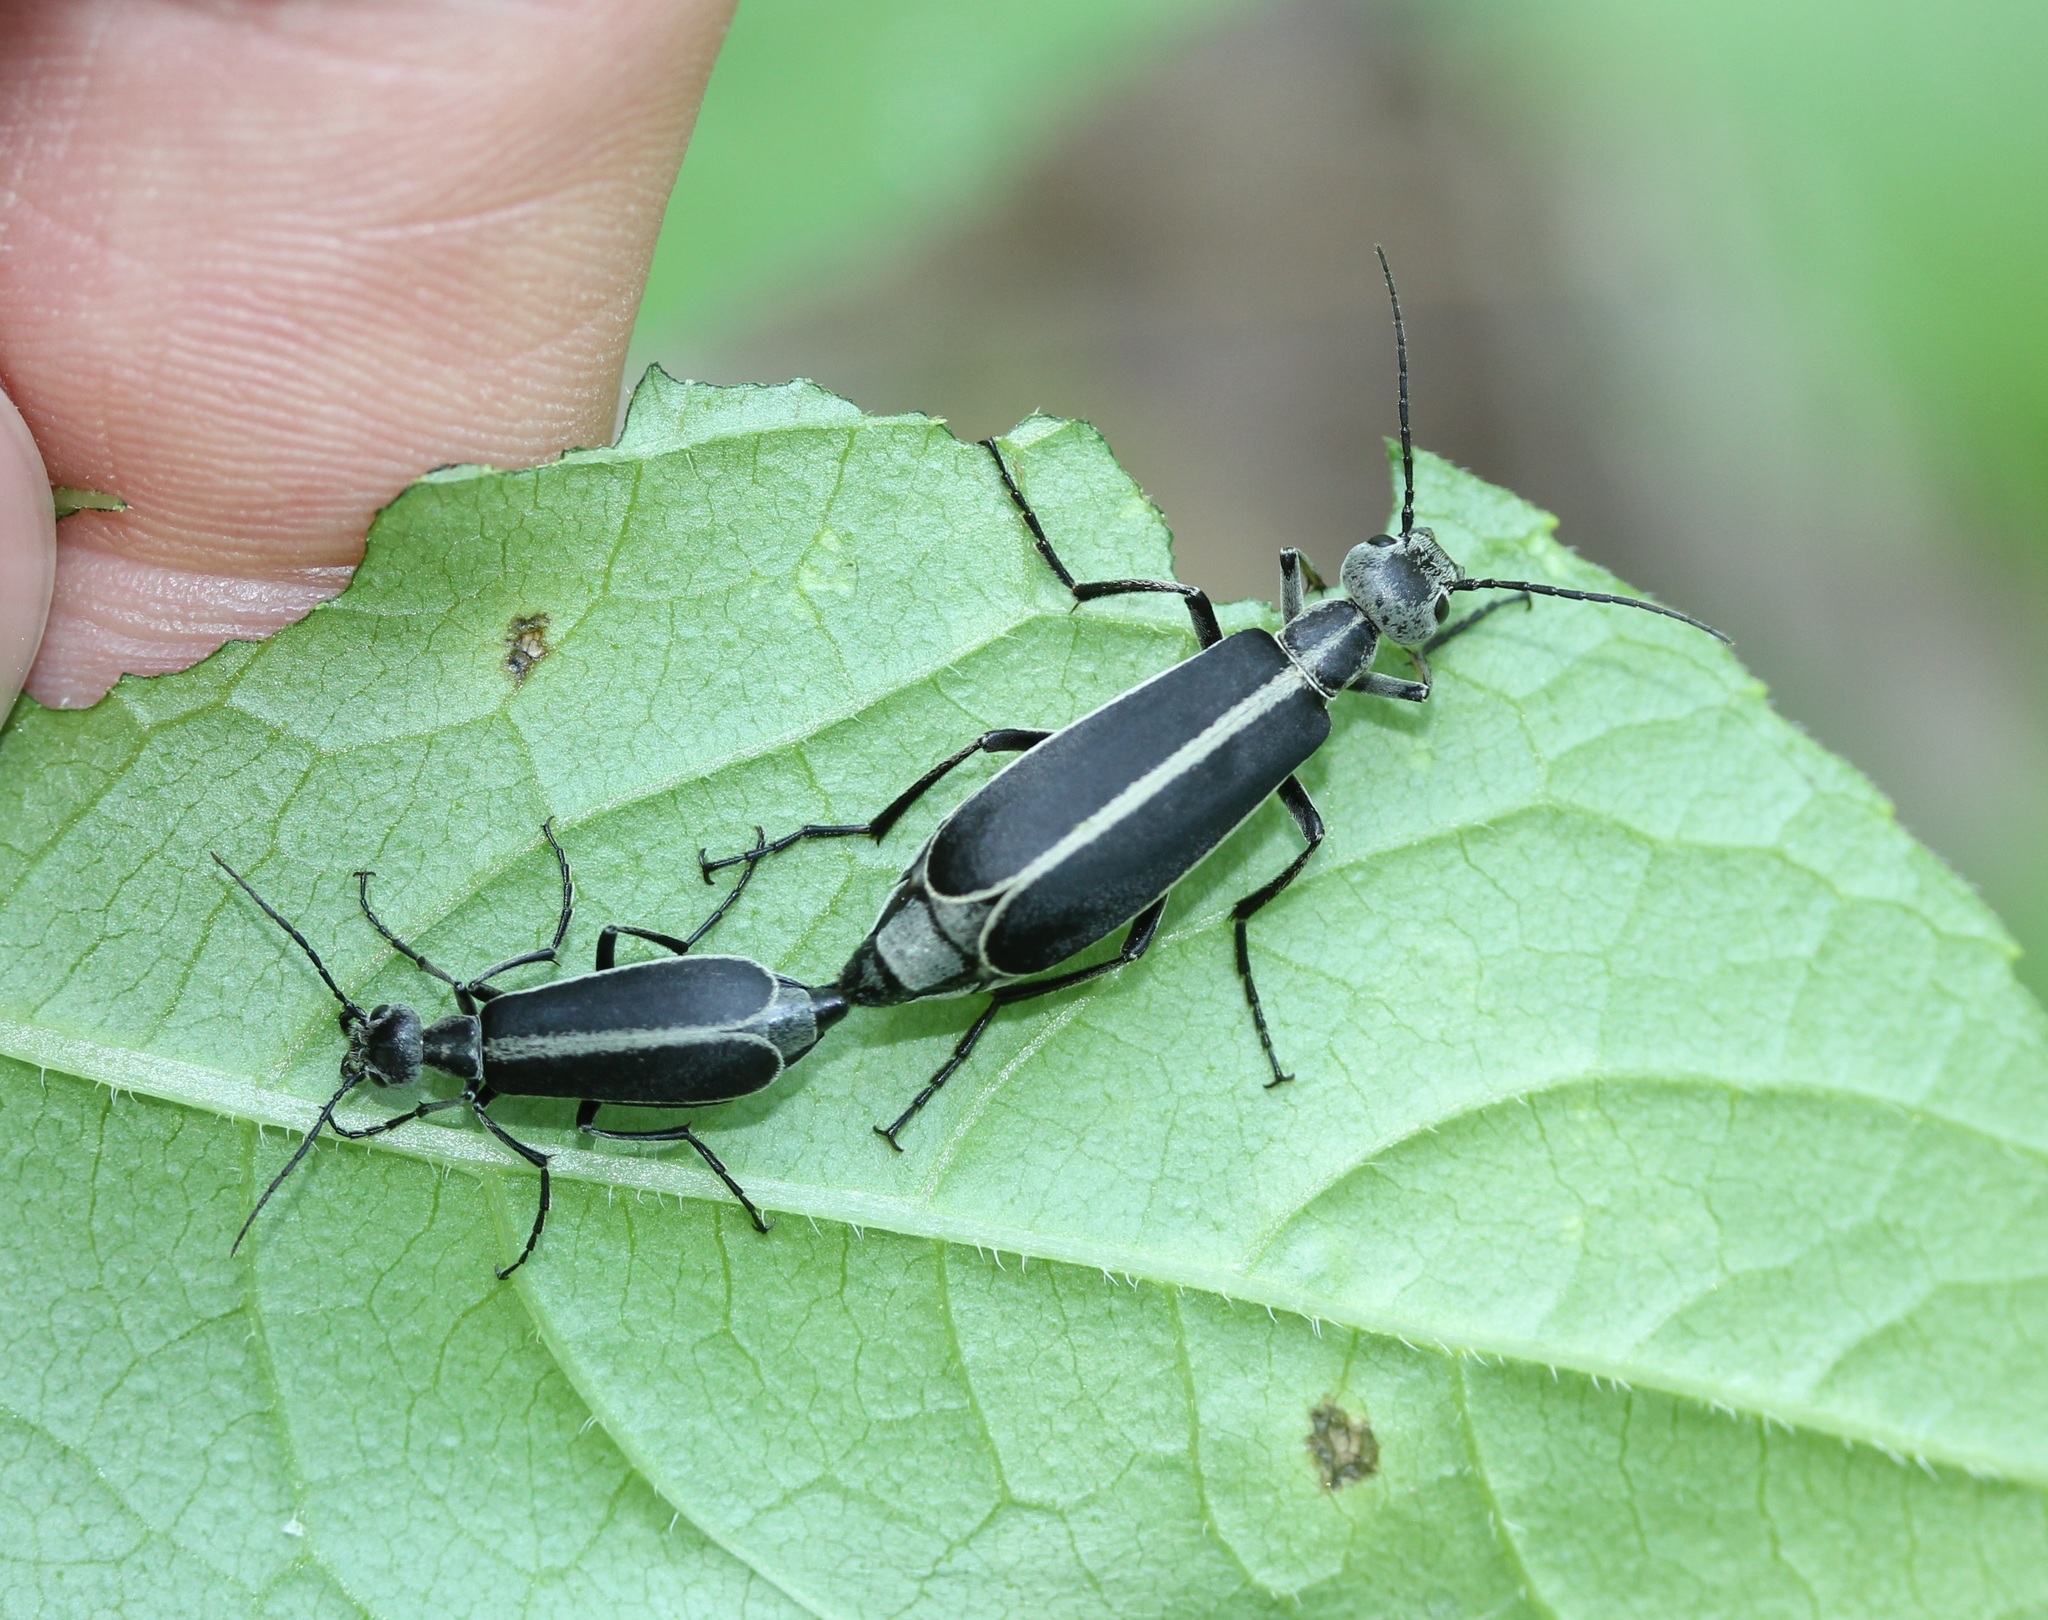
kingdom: Animalia
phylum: Arthropoda
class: Insecta
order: Coleoptera
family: Meloidae
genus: Epicauta
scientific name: Epicauta funebris
